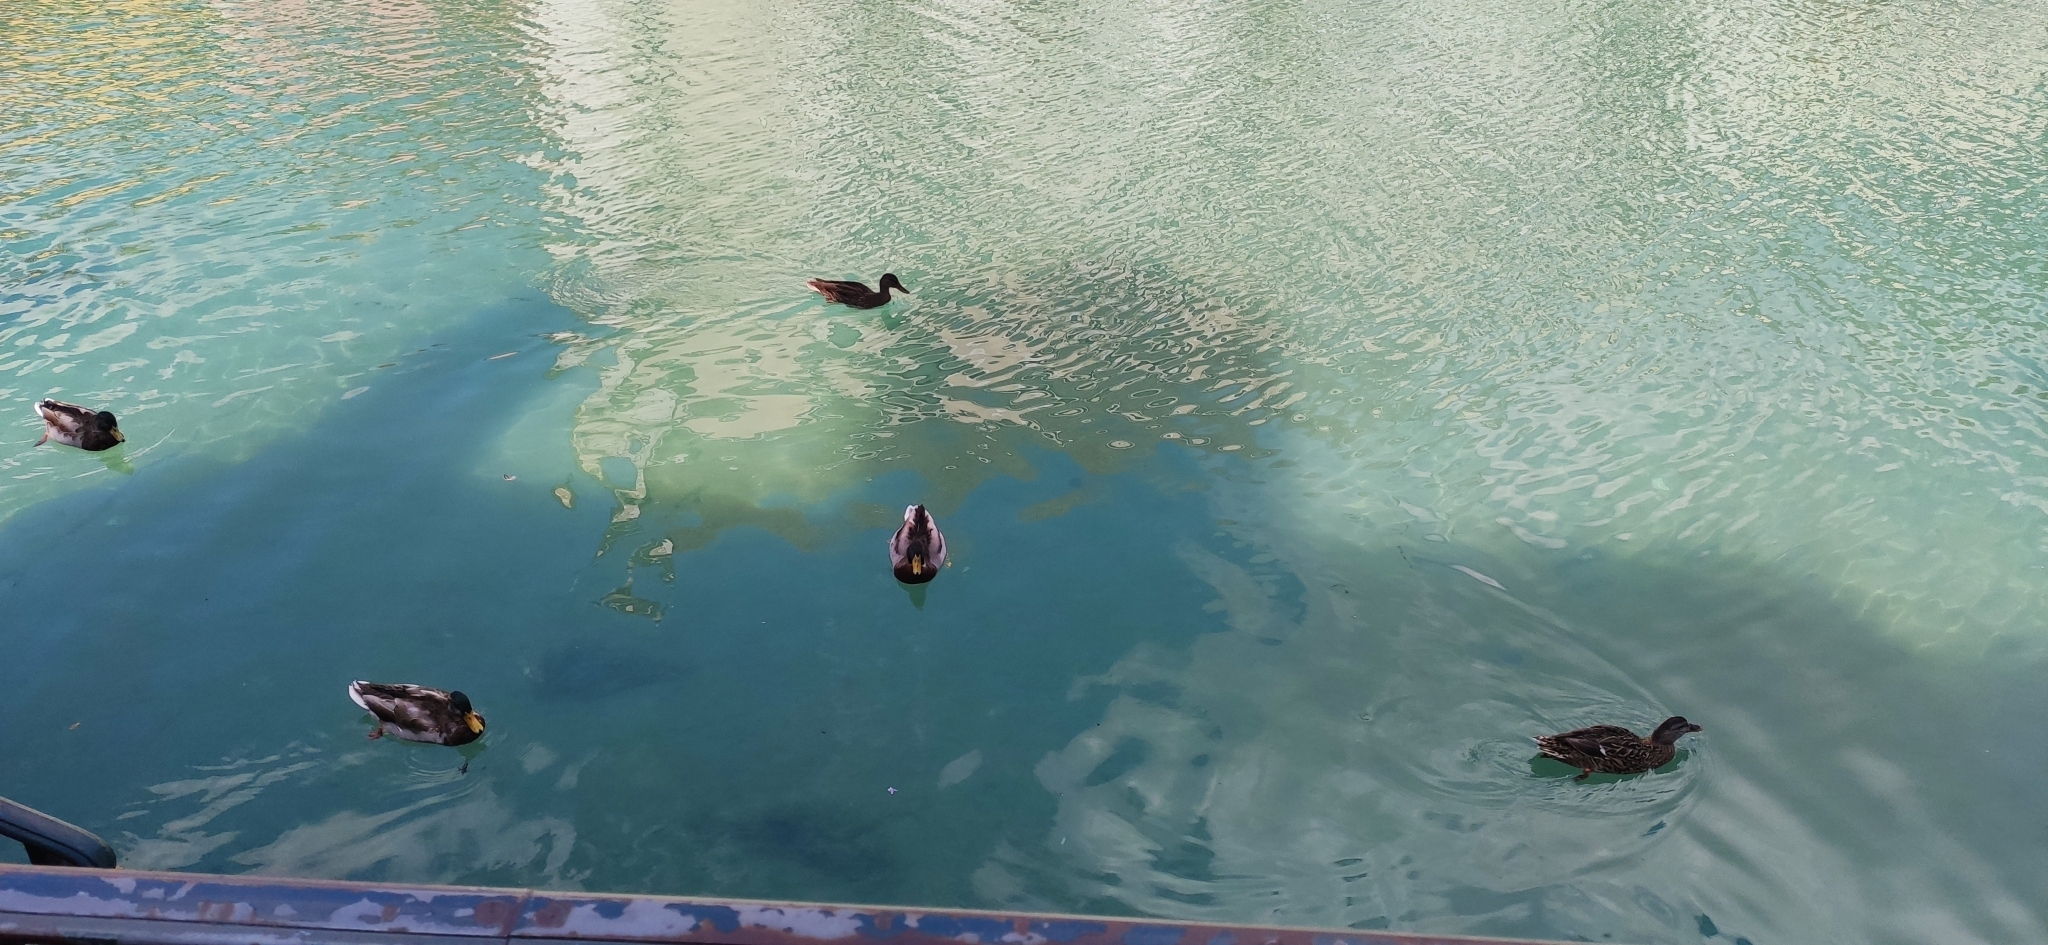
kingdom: Animalia
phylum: Chordata
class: Aves
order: Anseriformes
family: Anatidae
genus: Anas
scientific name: Anas platyrhynchos
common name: Mallard
